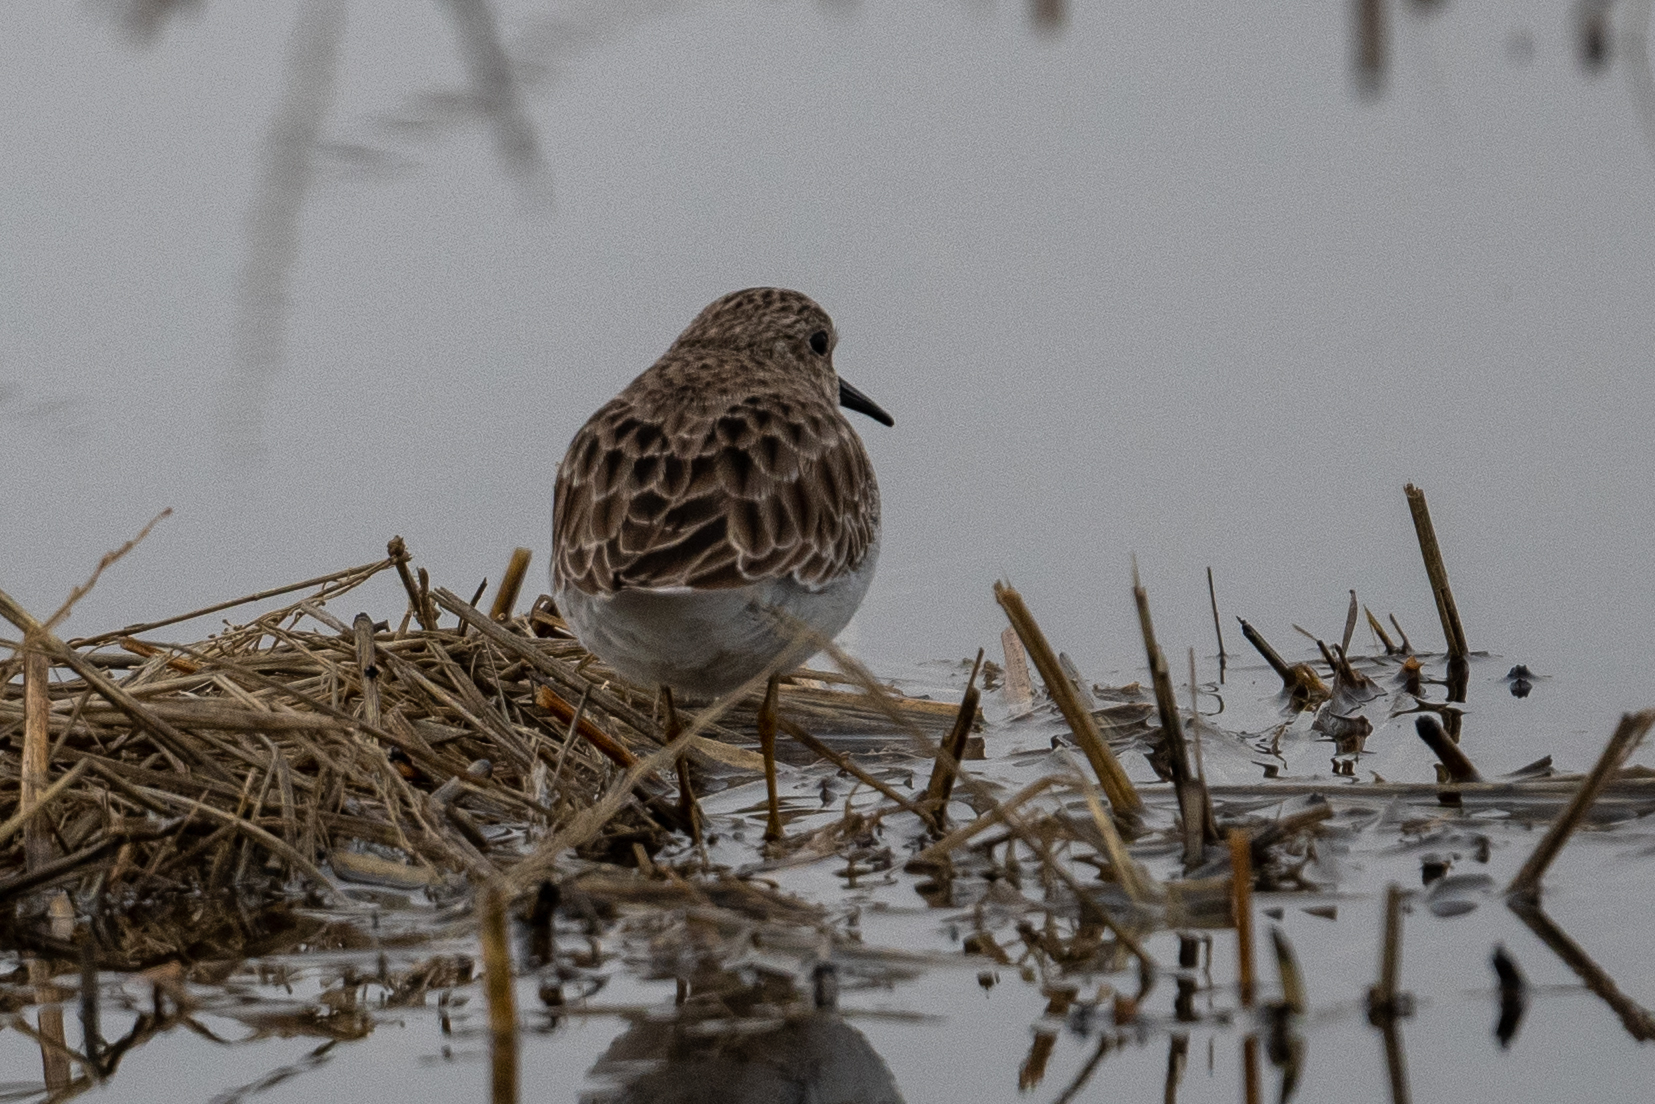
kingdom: Animalia
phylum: Chordata
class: Aves
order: Charadriiformes
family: Scolopacidae
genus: Calidris
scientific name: Calidris minutilla
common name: Least sandpiper
